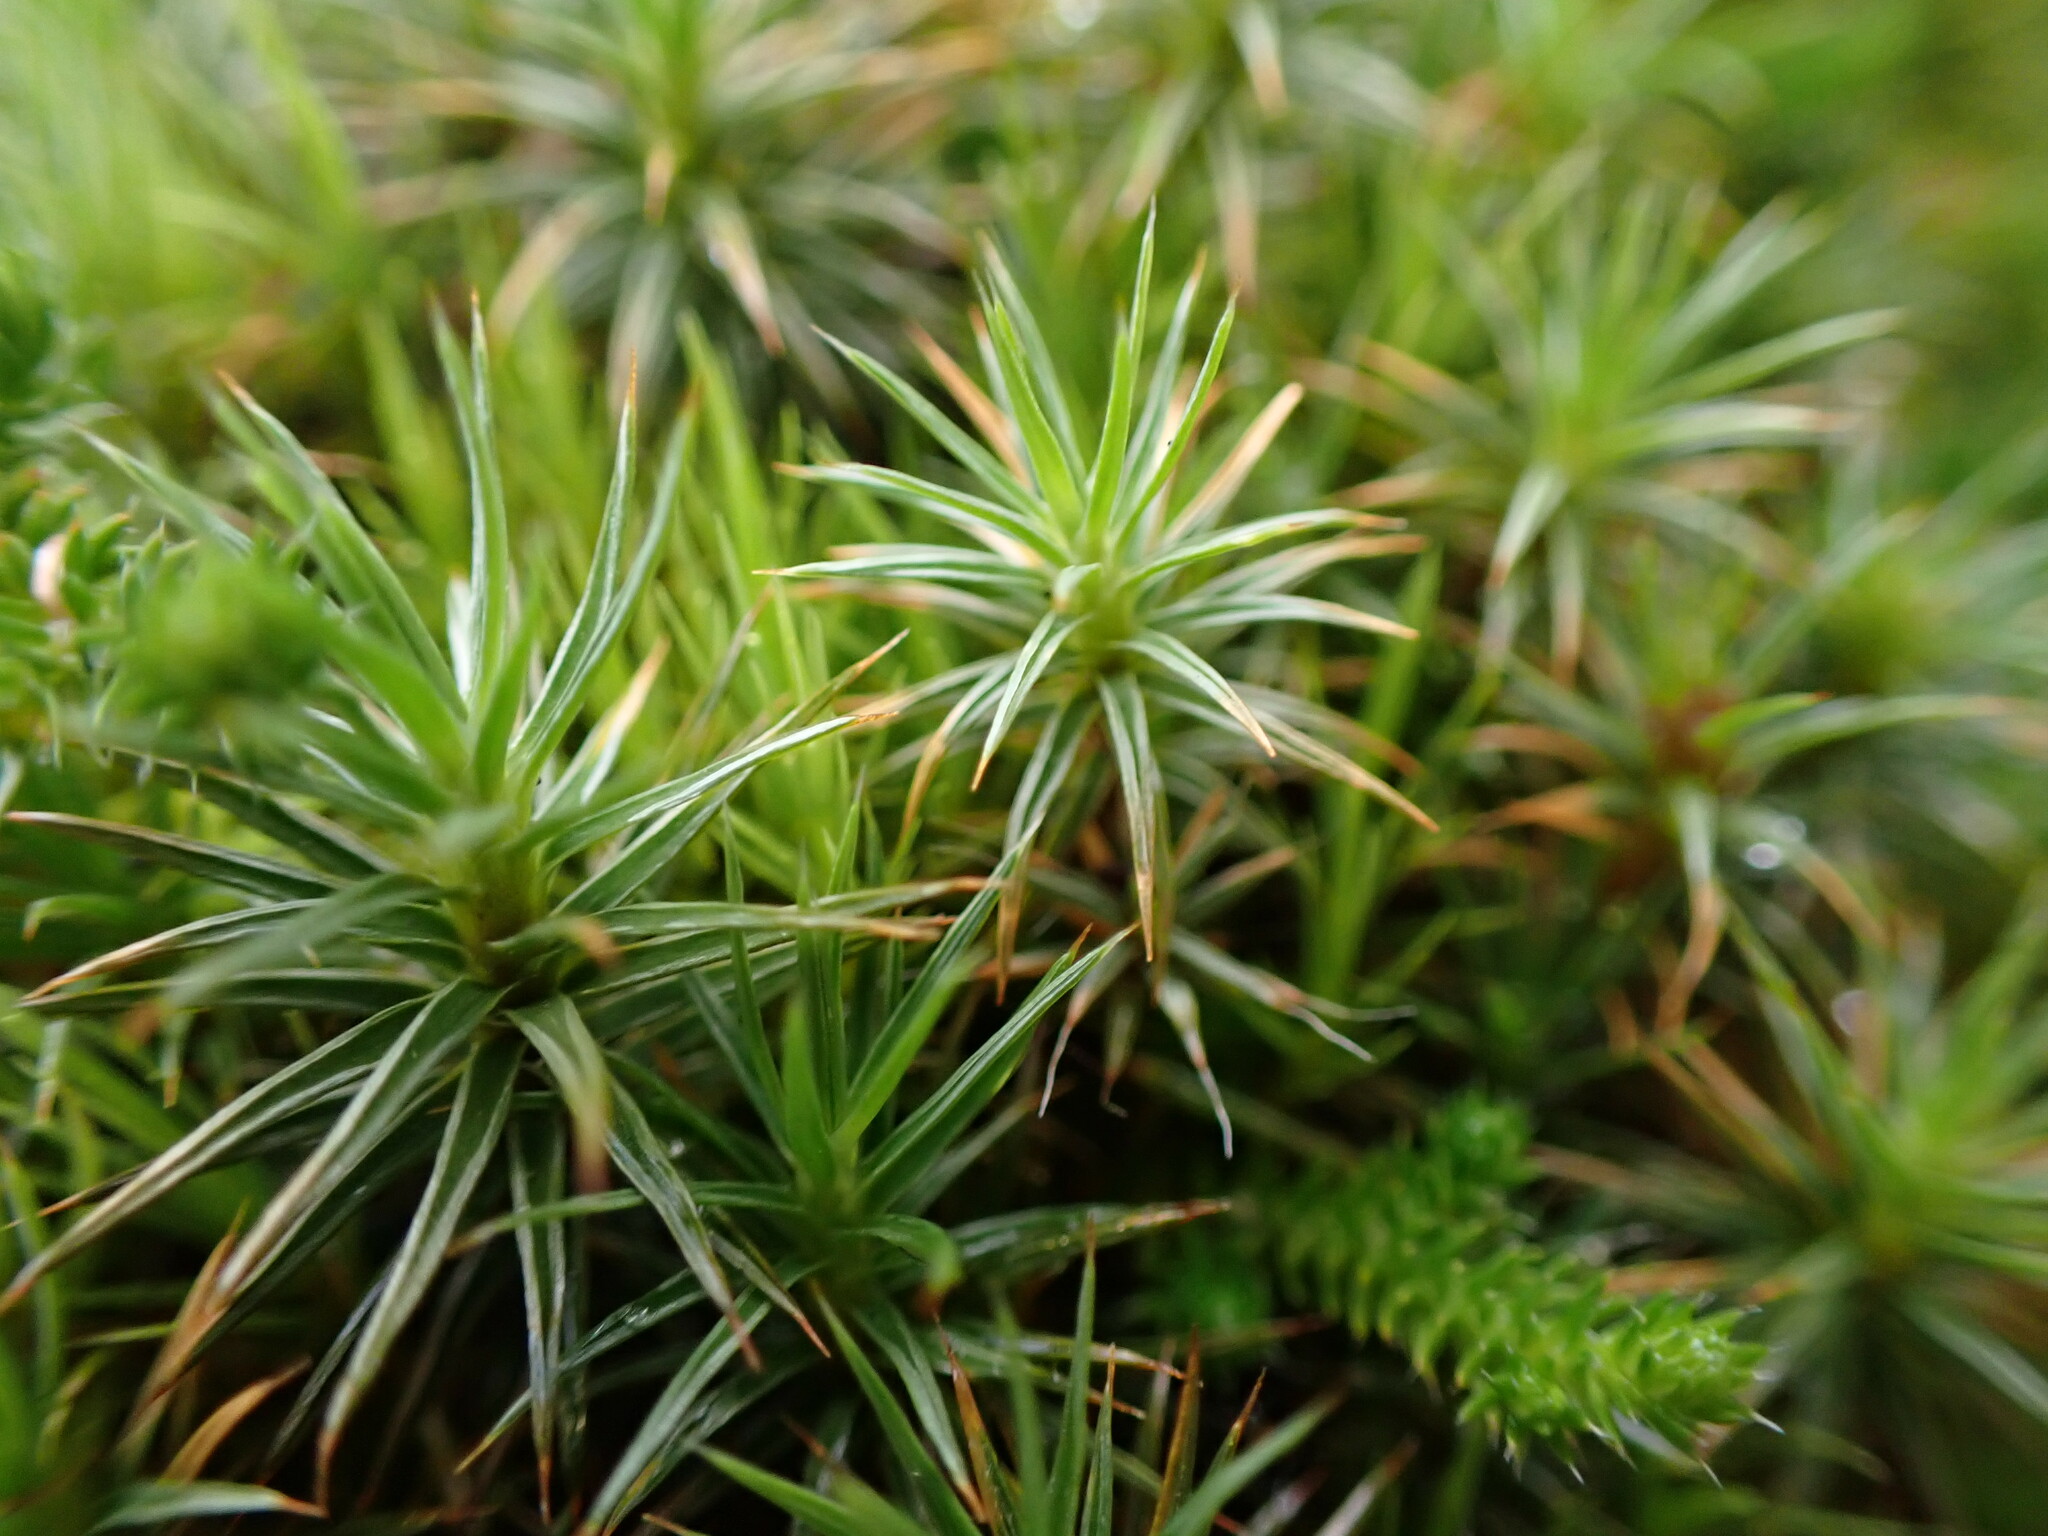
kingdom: Plantae
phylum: Bryophyta
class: Polytrichopsida
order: Polytrichales
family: Polytrichaceae
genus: Polytrichum
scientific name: Polytrichum juniperinum
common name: Juniper haircap moss
